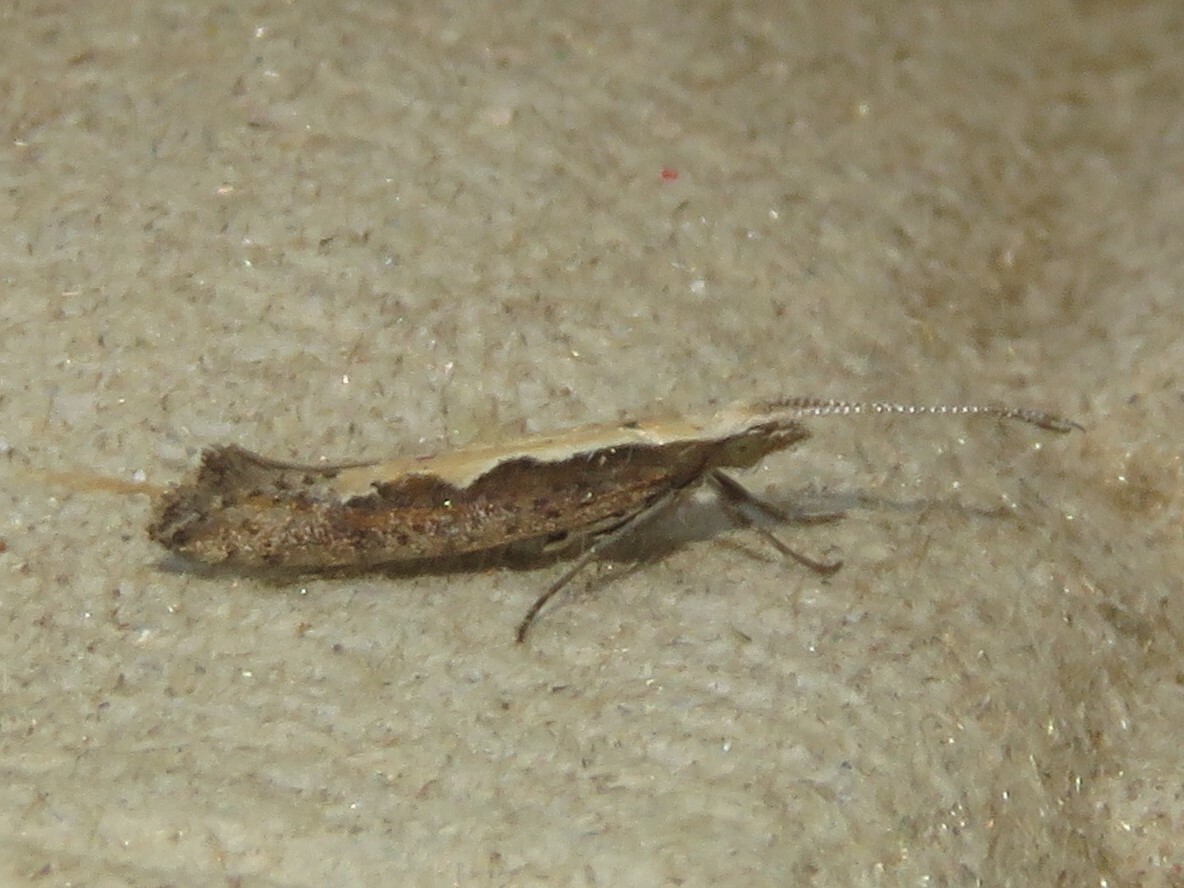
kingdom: Animalia
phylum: Arthropoda
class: Insecta
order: Lepidoptera
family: Plutellidae
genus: Plutella
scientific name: Plutella xylostella
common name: Diamond-back moth
